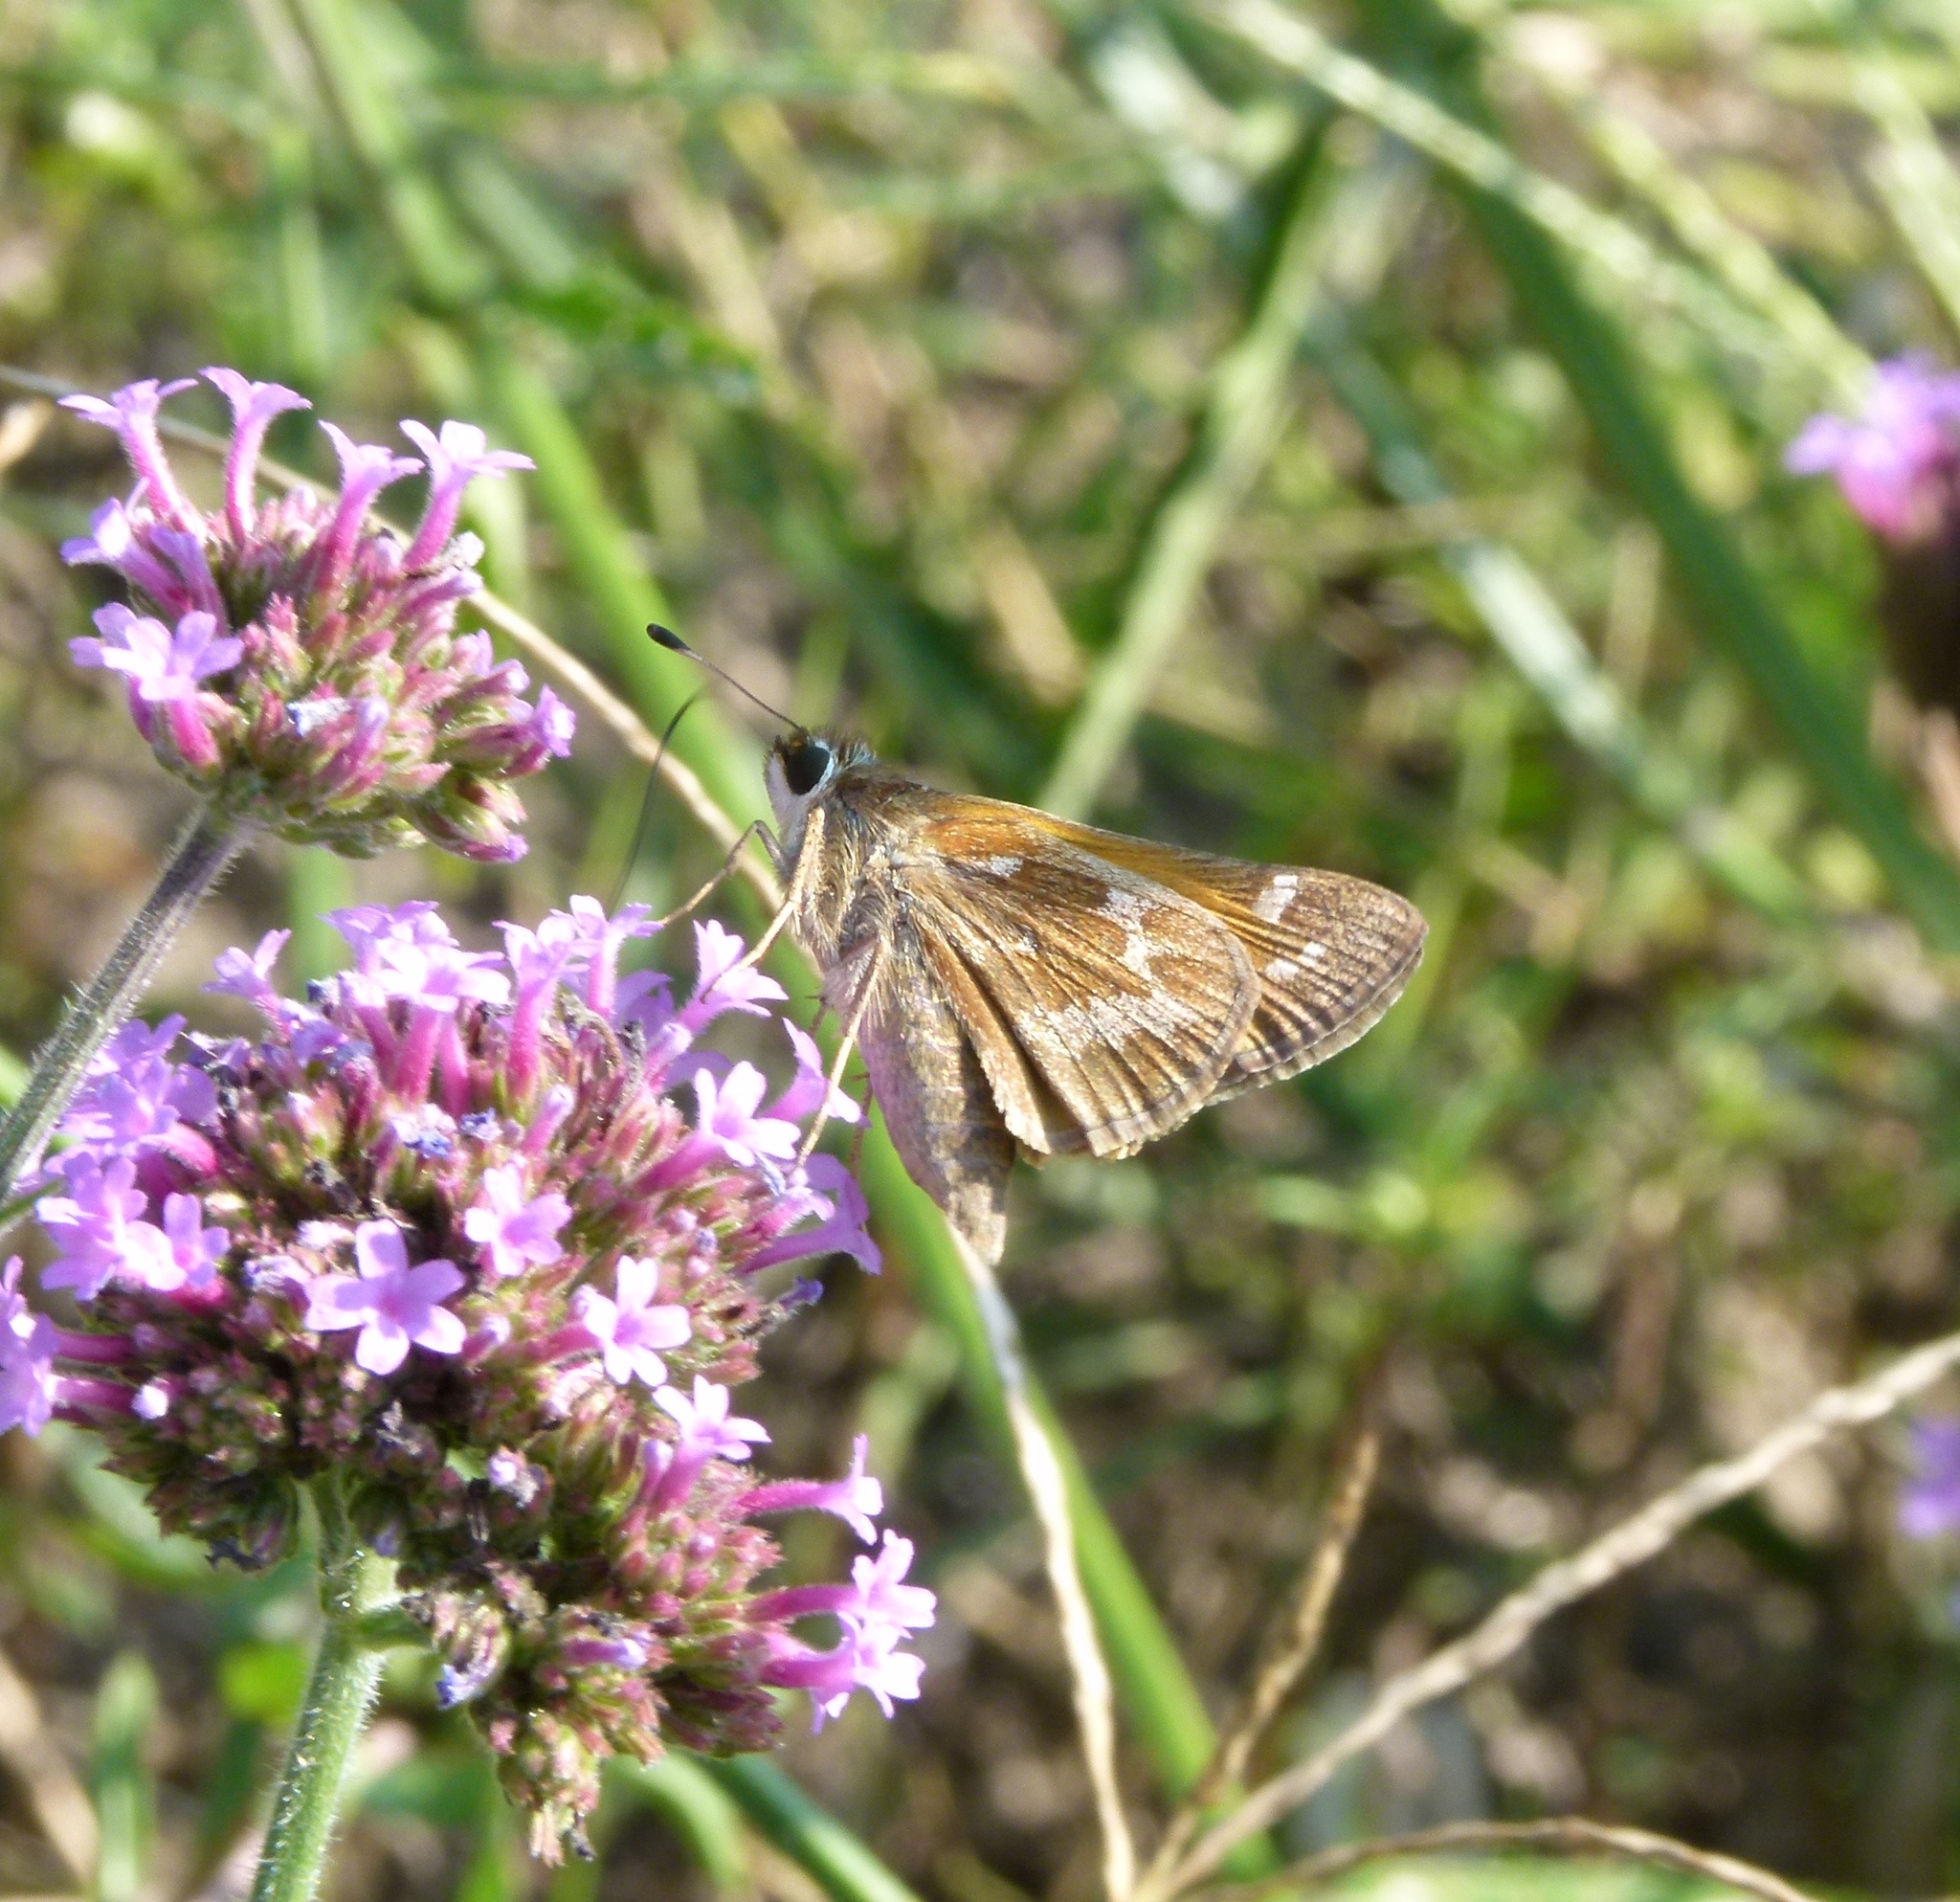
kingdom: Animalia
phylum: Arthropoda
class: Insecta
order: Lepidoptera
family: Hesperiidae
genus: Atalopedes
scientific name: Atalopedes
